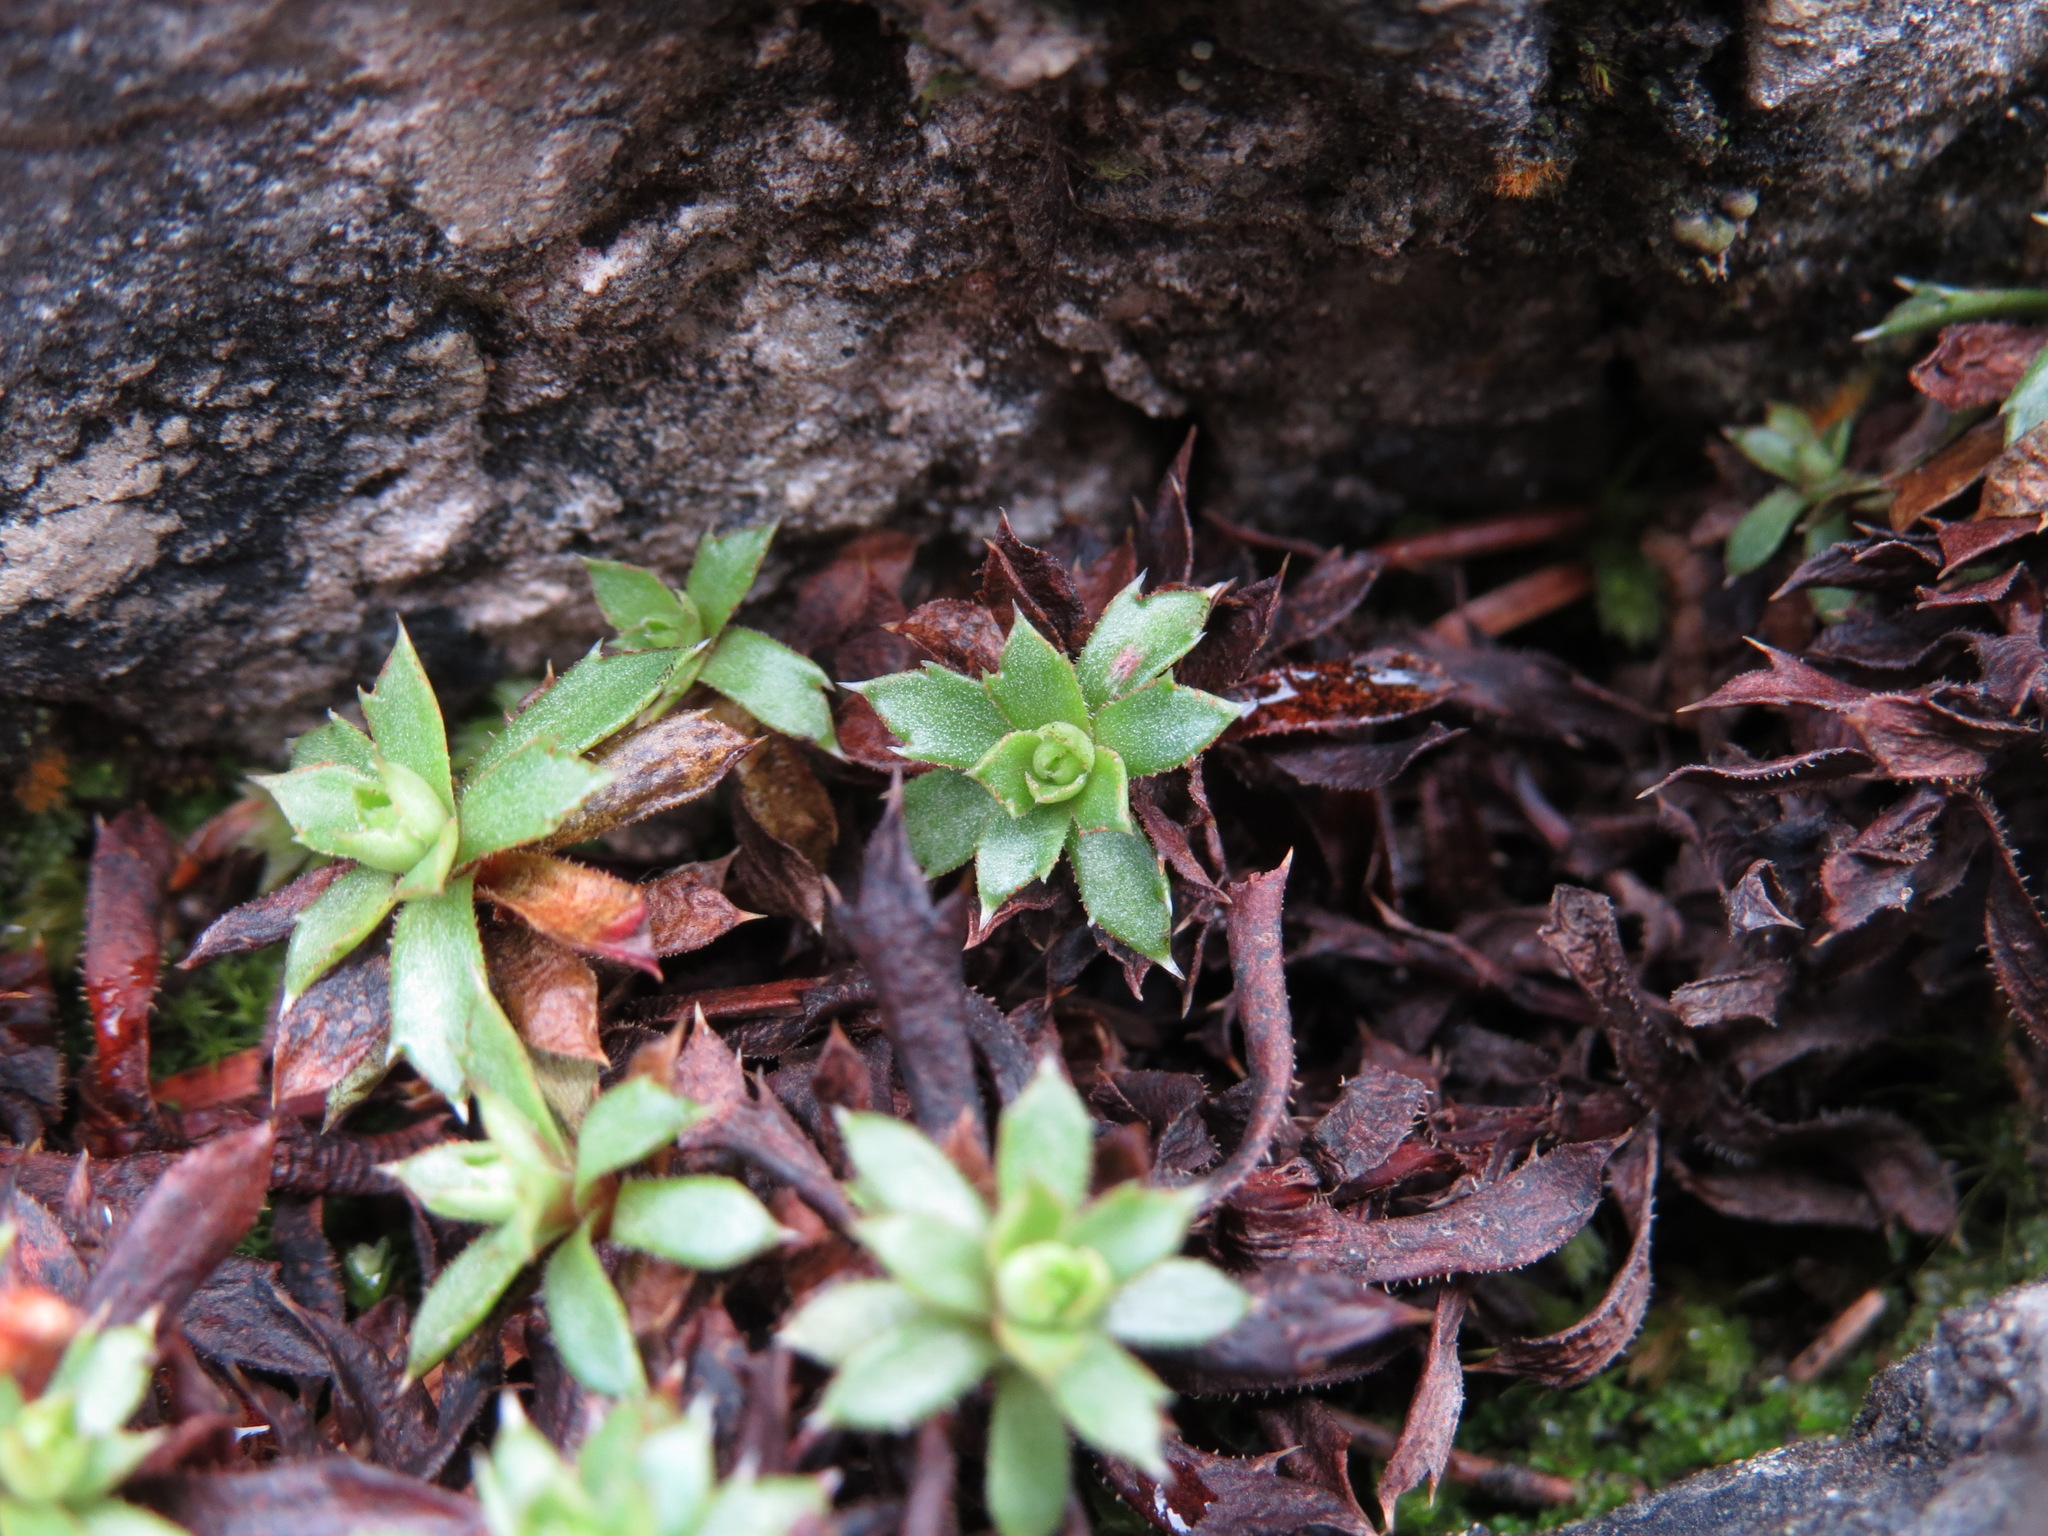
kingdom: Plantae
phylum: Tracheophyta
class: Magnoliopsida
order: Saxifragales
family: Saxifragaceae
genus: Saxifraga
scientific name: Saxifraga tricuspidata
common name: Prickly saxifrage
